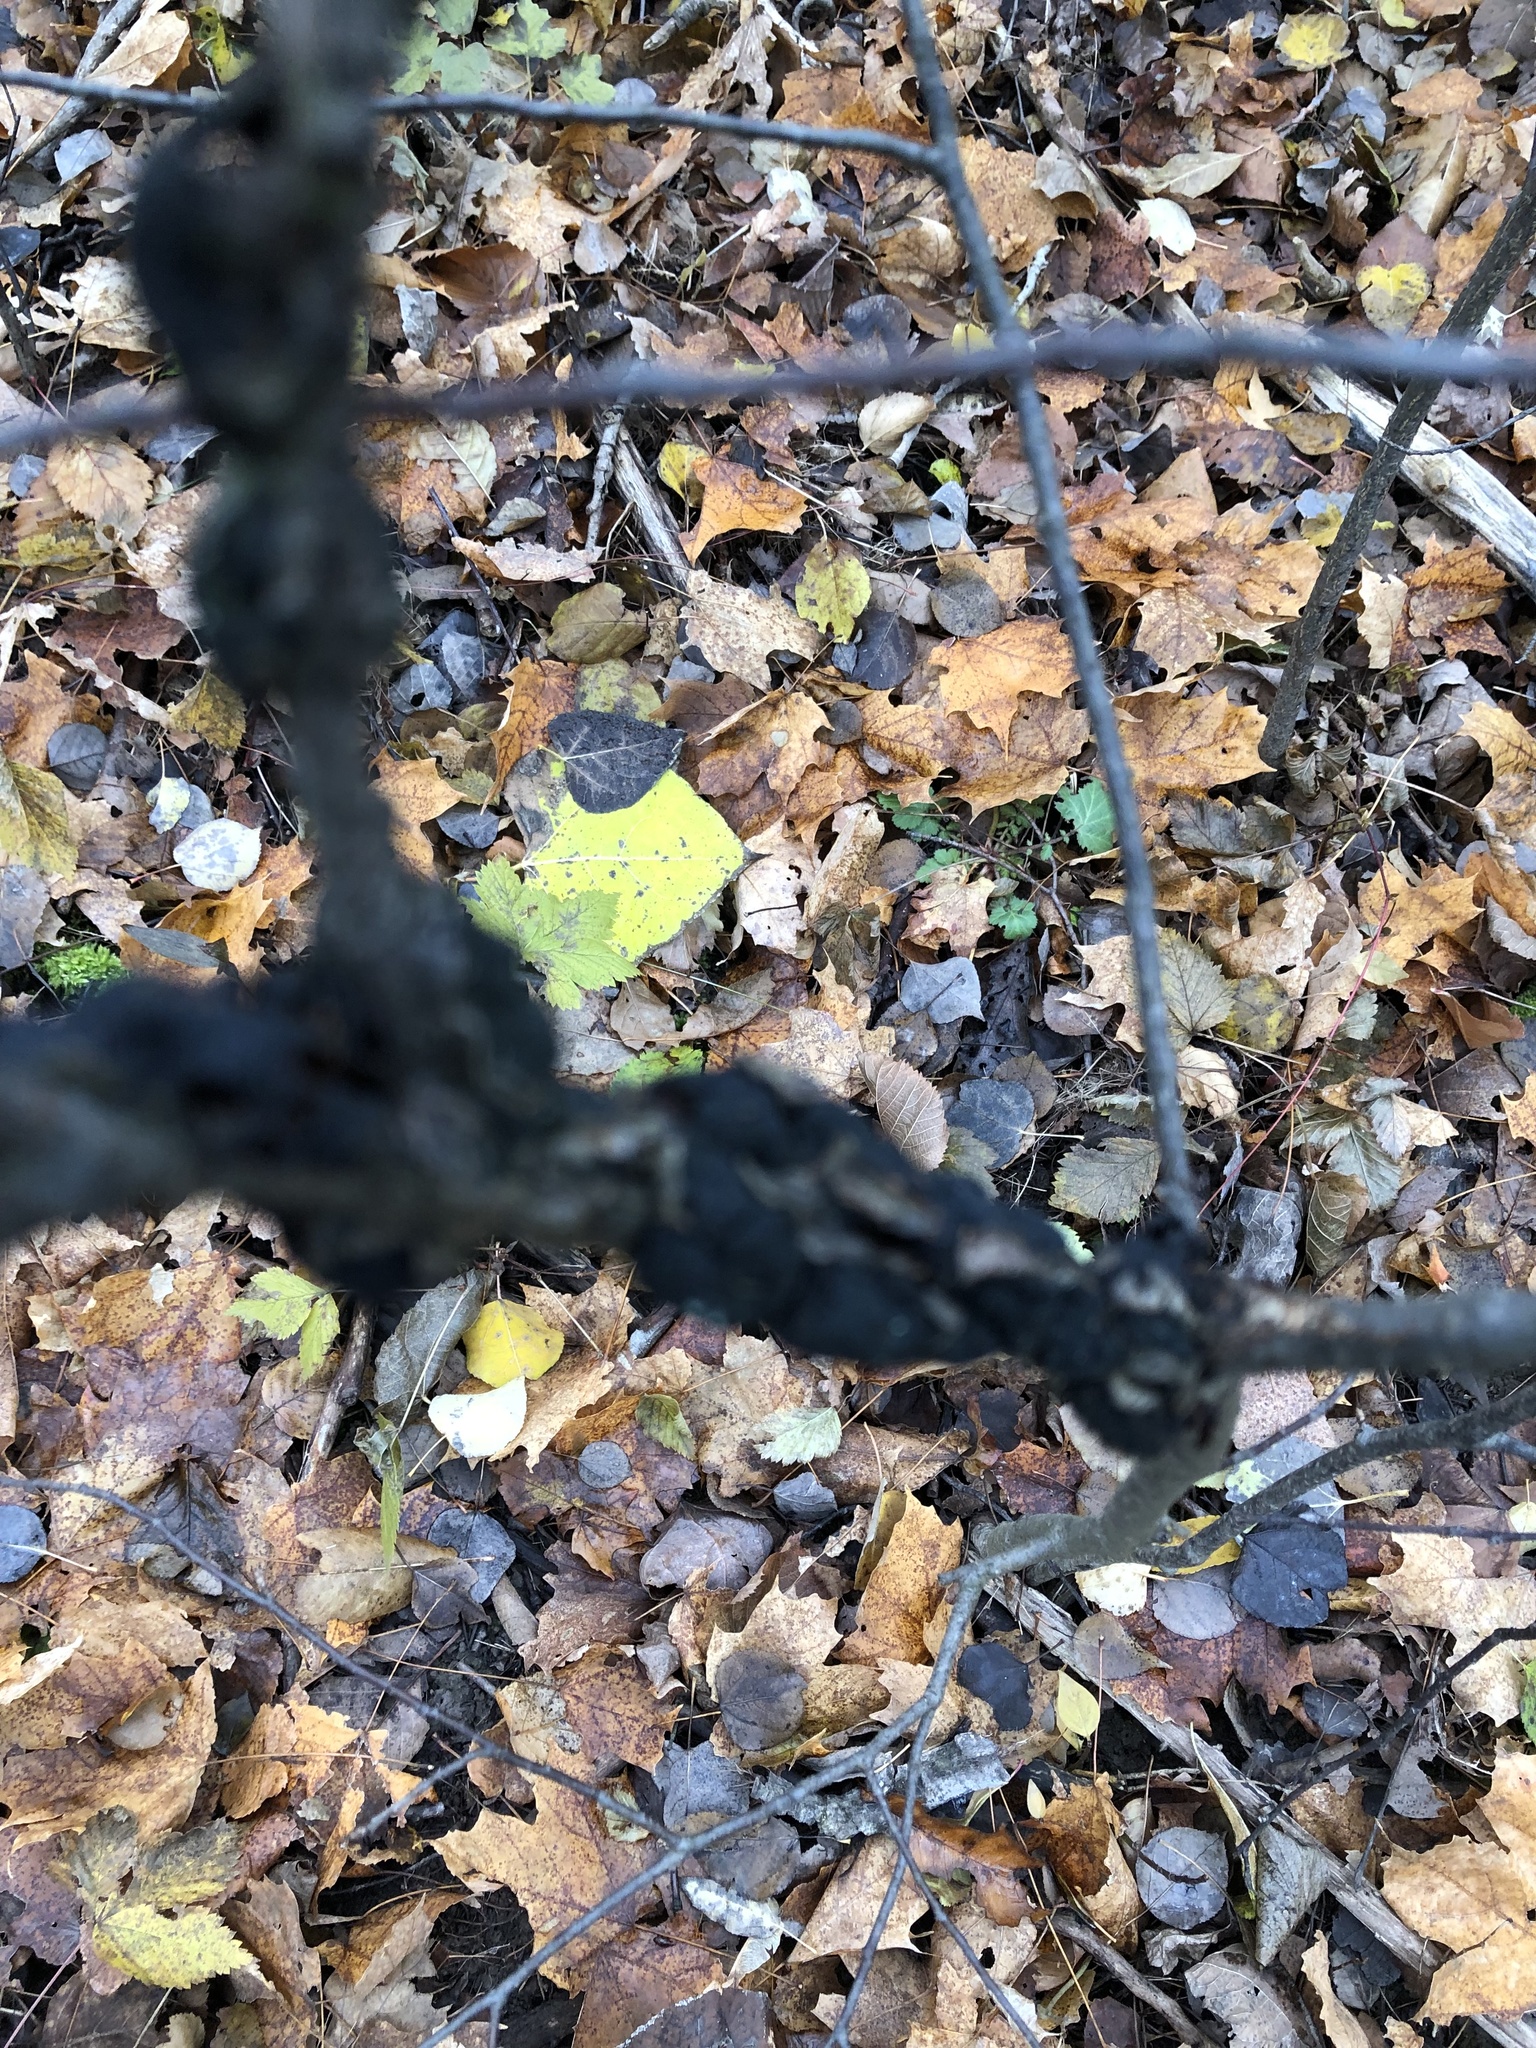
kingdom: Fungi
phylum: Ascomycota
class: Dothideomycetes
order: Venturiales
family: Venturiaceae
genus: Apiosporina
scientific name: Apiosporina morbosa
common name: Black knot
